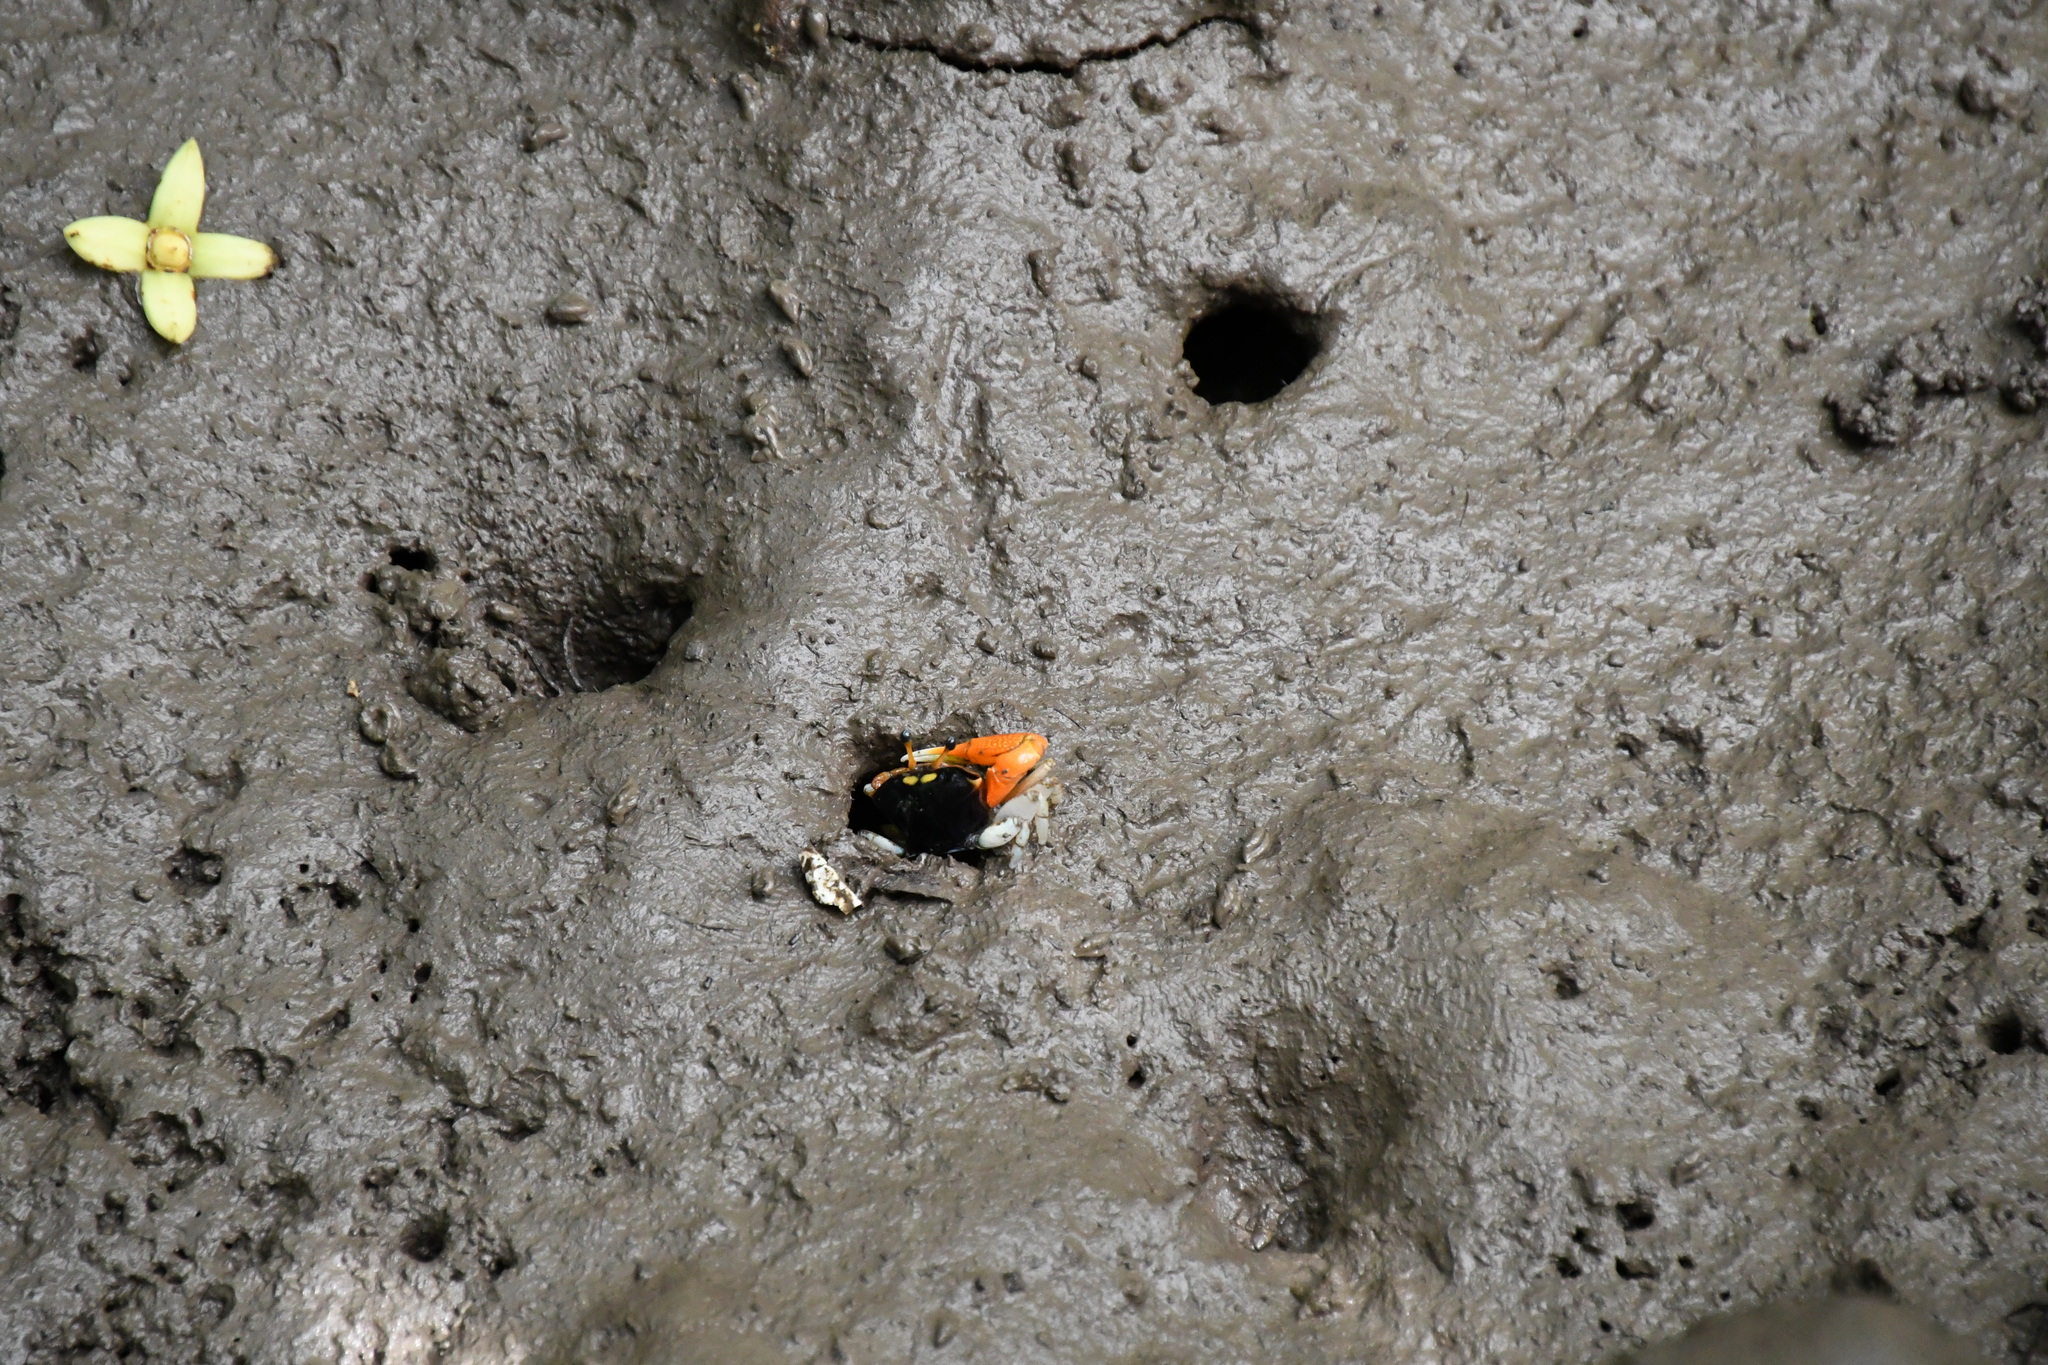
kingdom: Animalia
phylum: Arthropoda
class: Malacostraca
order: Decapoda
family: Ocypodidae
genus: Tubuca
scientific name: Tubuca coarctata
